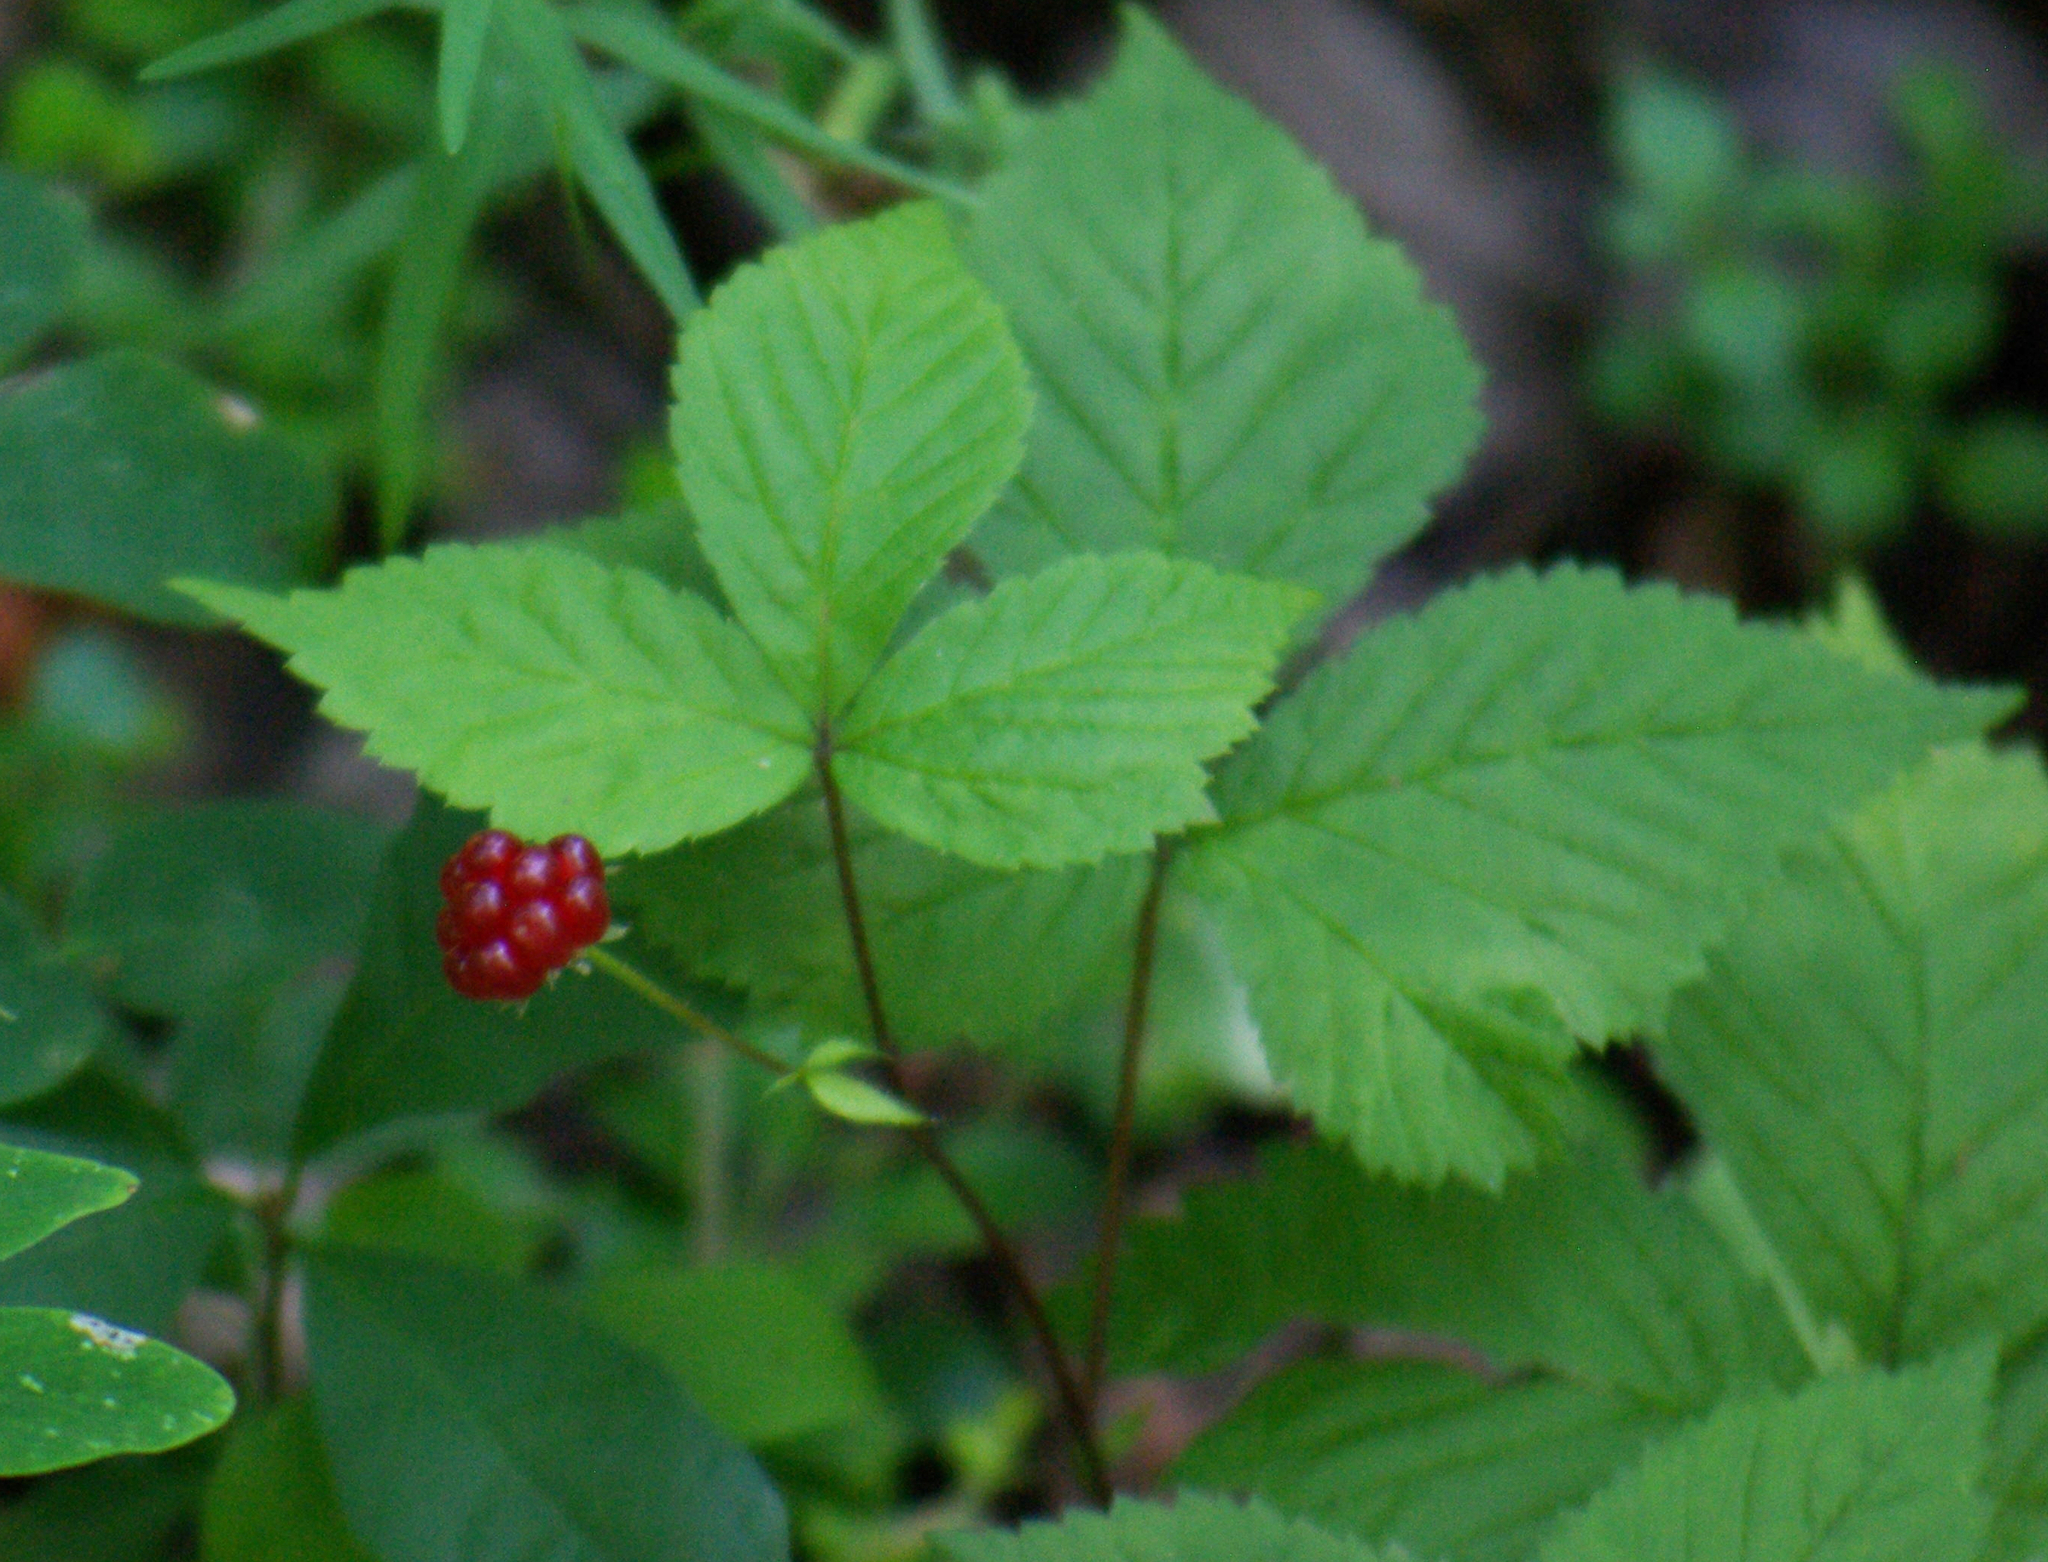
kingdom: Plantae
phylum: Tracheophyta
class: Magnoliopsida
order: Rosales
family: Rosaceae
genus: Rubus
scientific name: Rubus pubescens
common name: Dwarf raspberry
